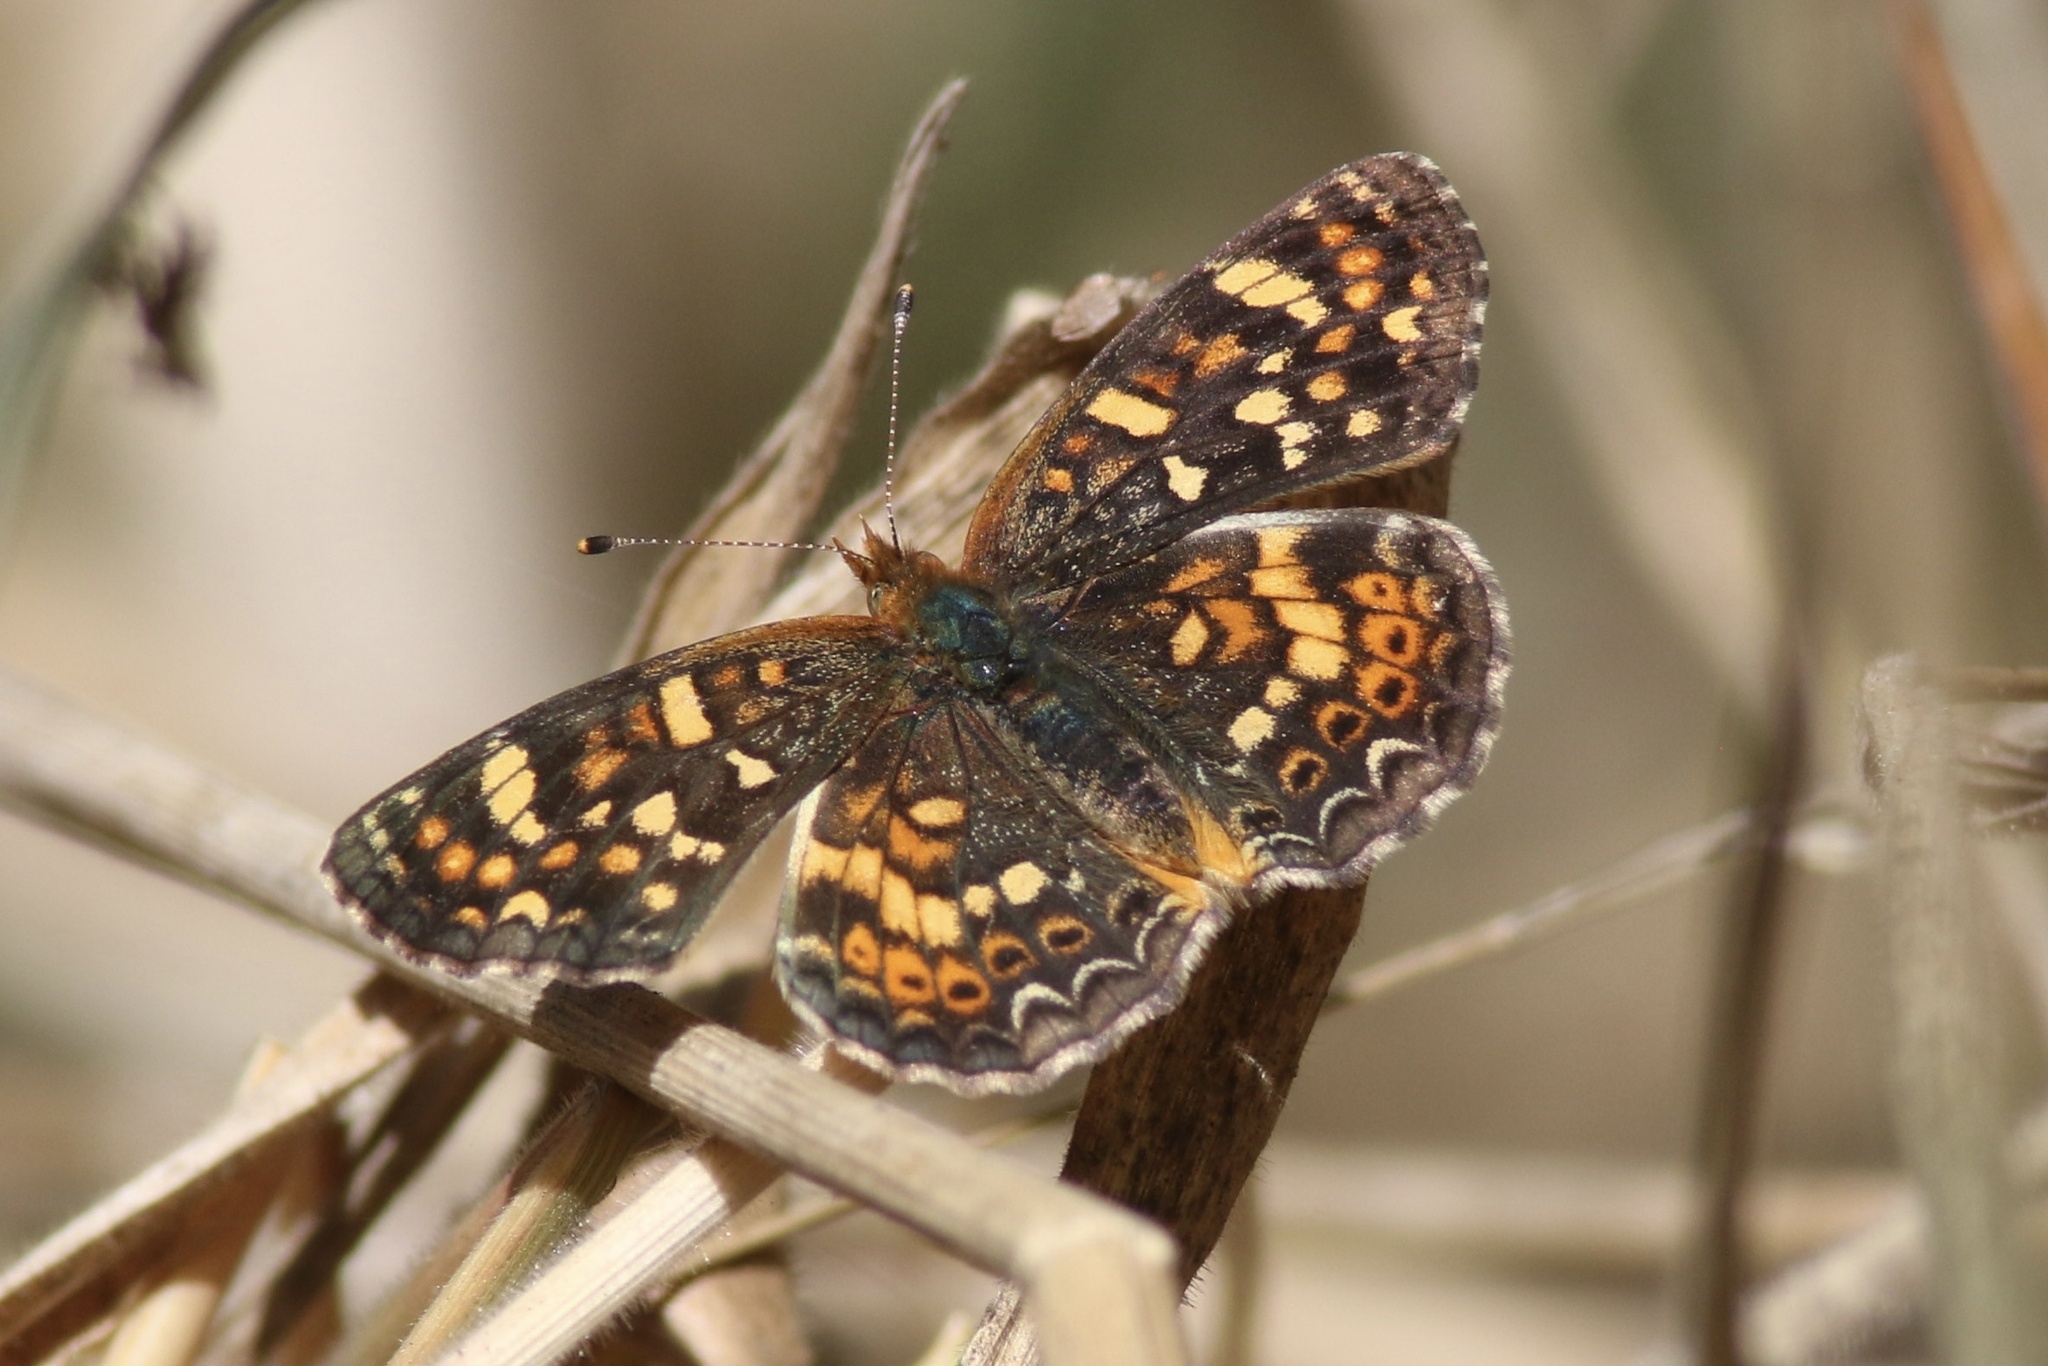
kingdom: Animalia
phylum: Arthropoda
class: Insecta
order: Lepidoptera
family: Nymphalidae
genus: Phyciodes
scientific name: Phyciodes tharos
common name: Pearl crescent
